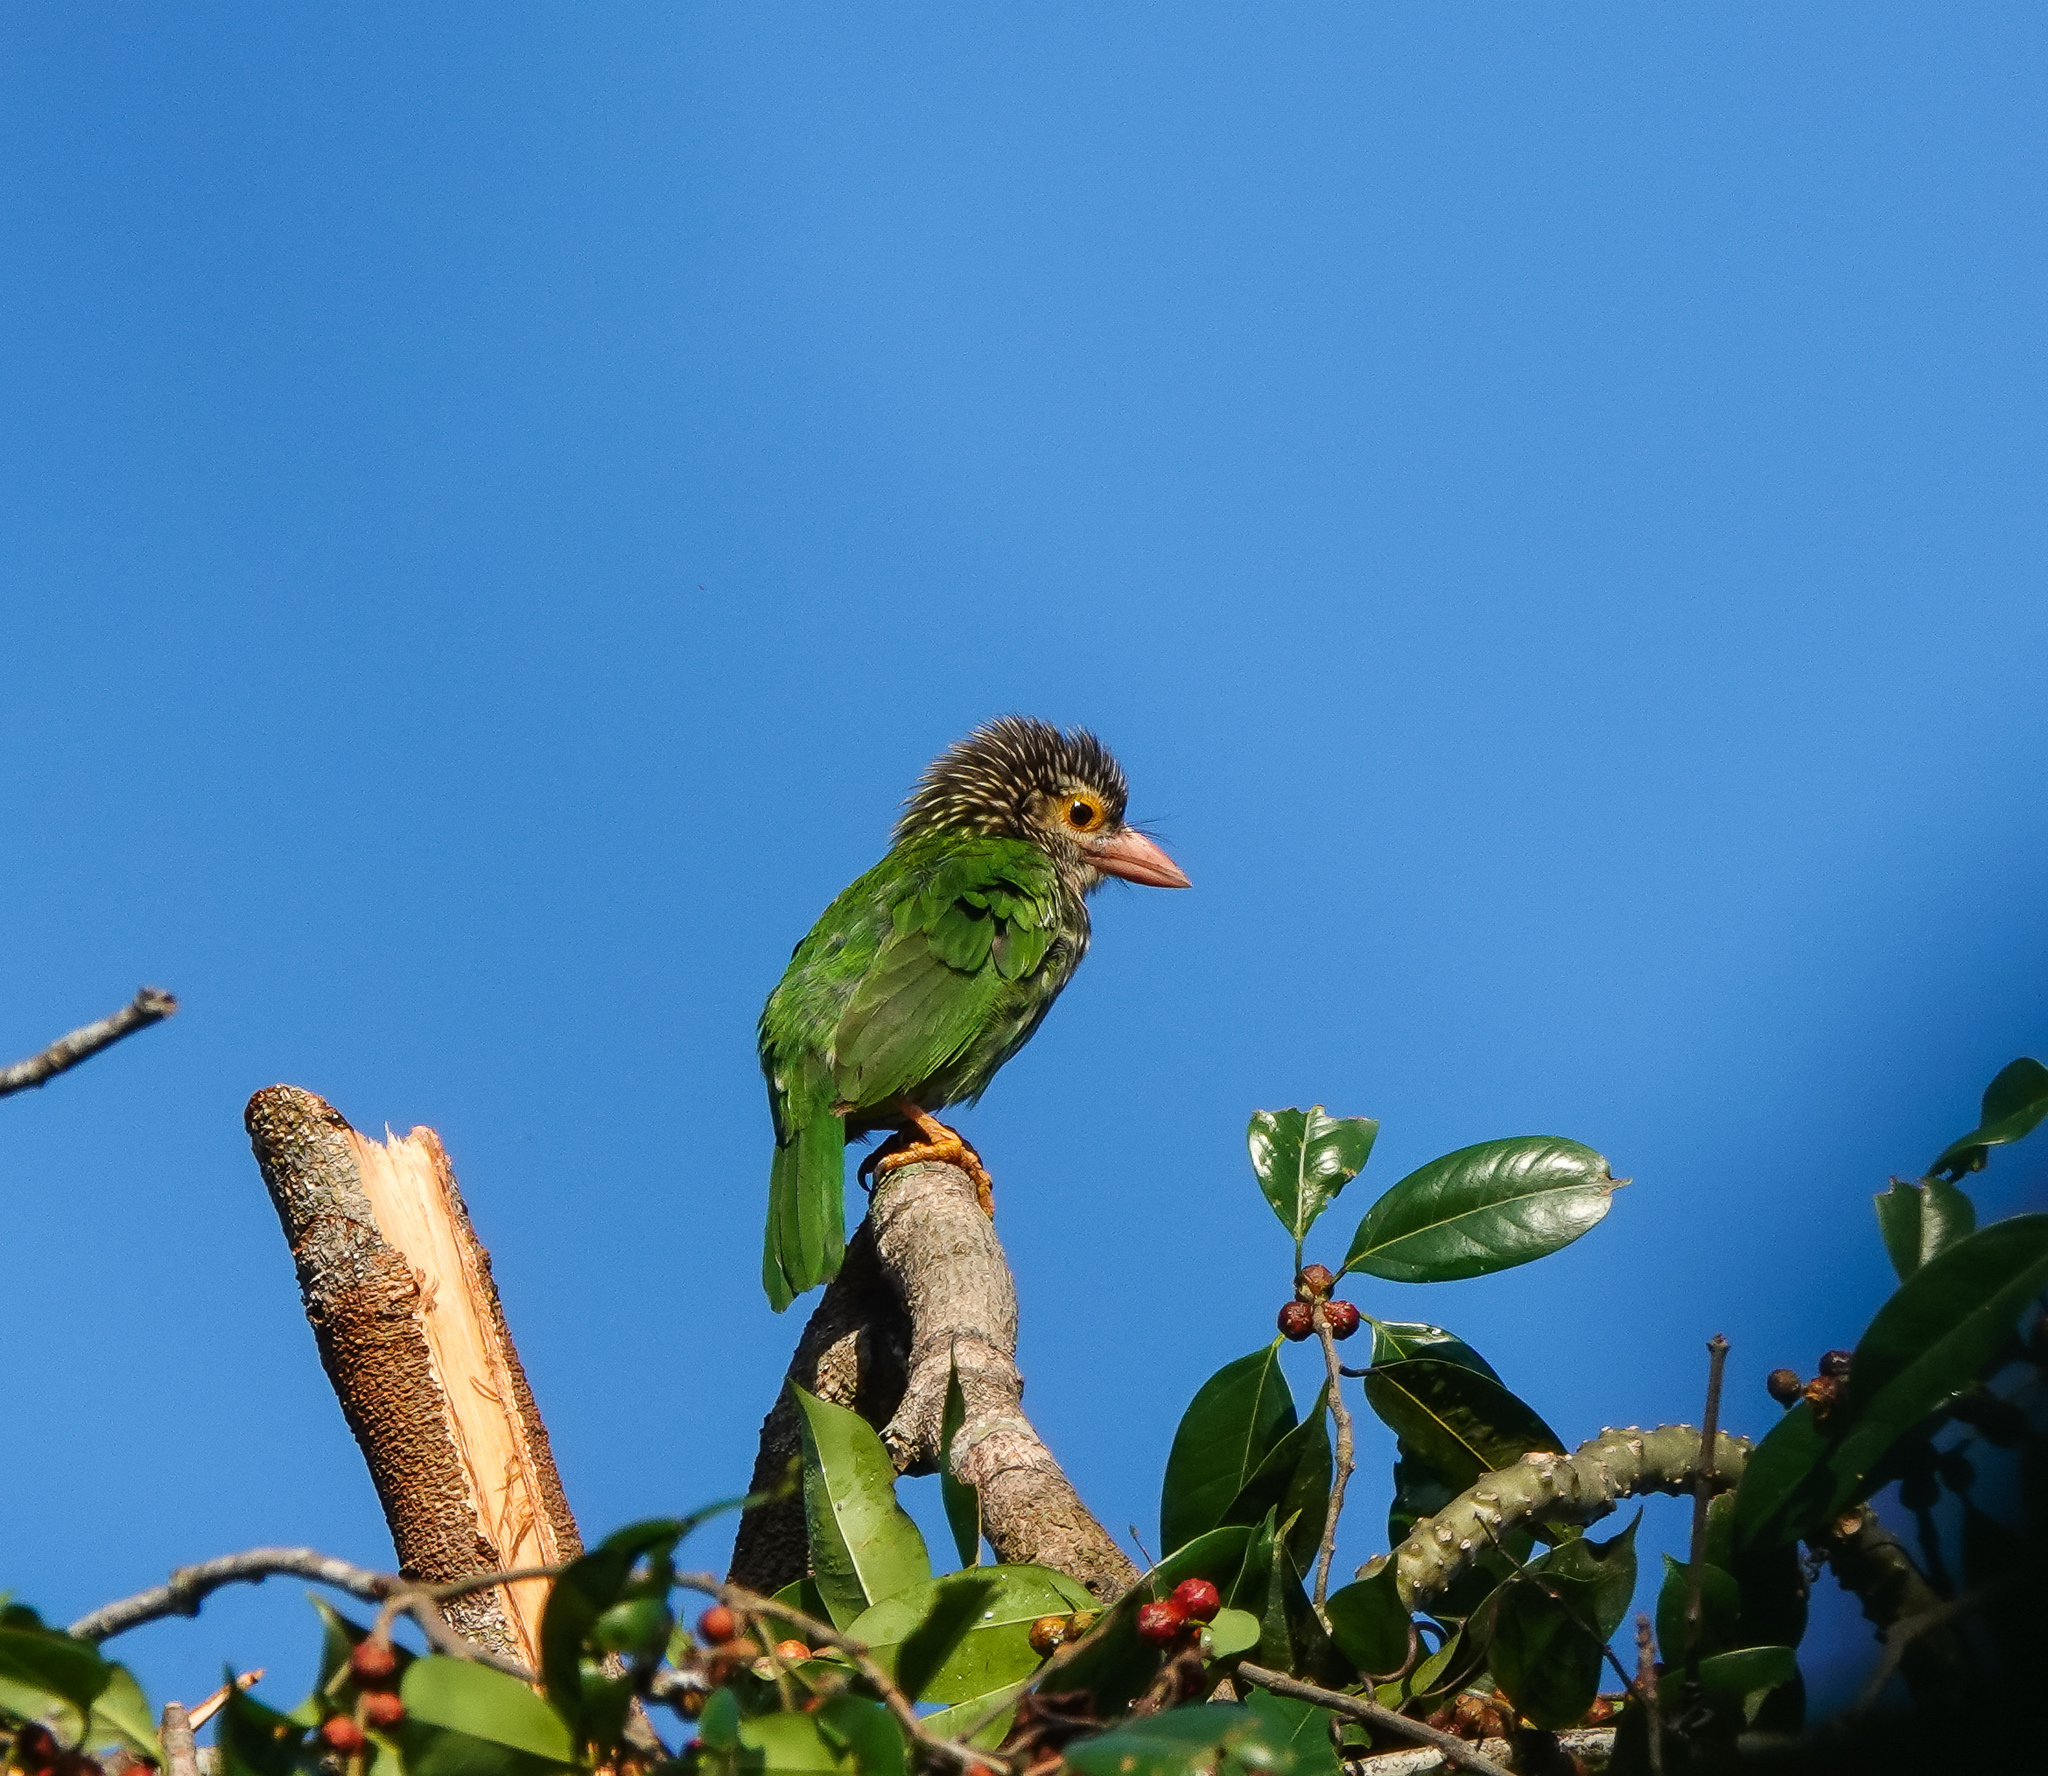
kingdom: Animalia
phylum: Chordata
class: Aves
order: Piciformes
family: Megalaimidae
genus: Psilopogon
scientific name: Psilopogon lineatus
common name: Lineated barbet
